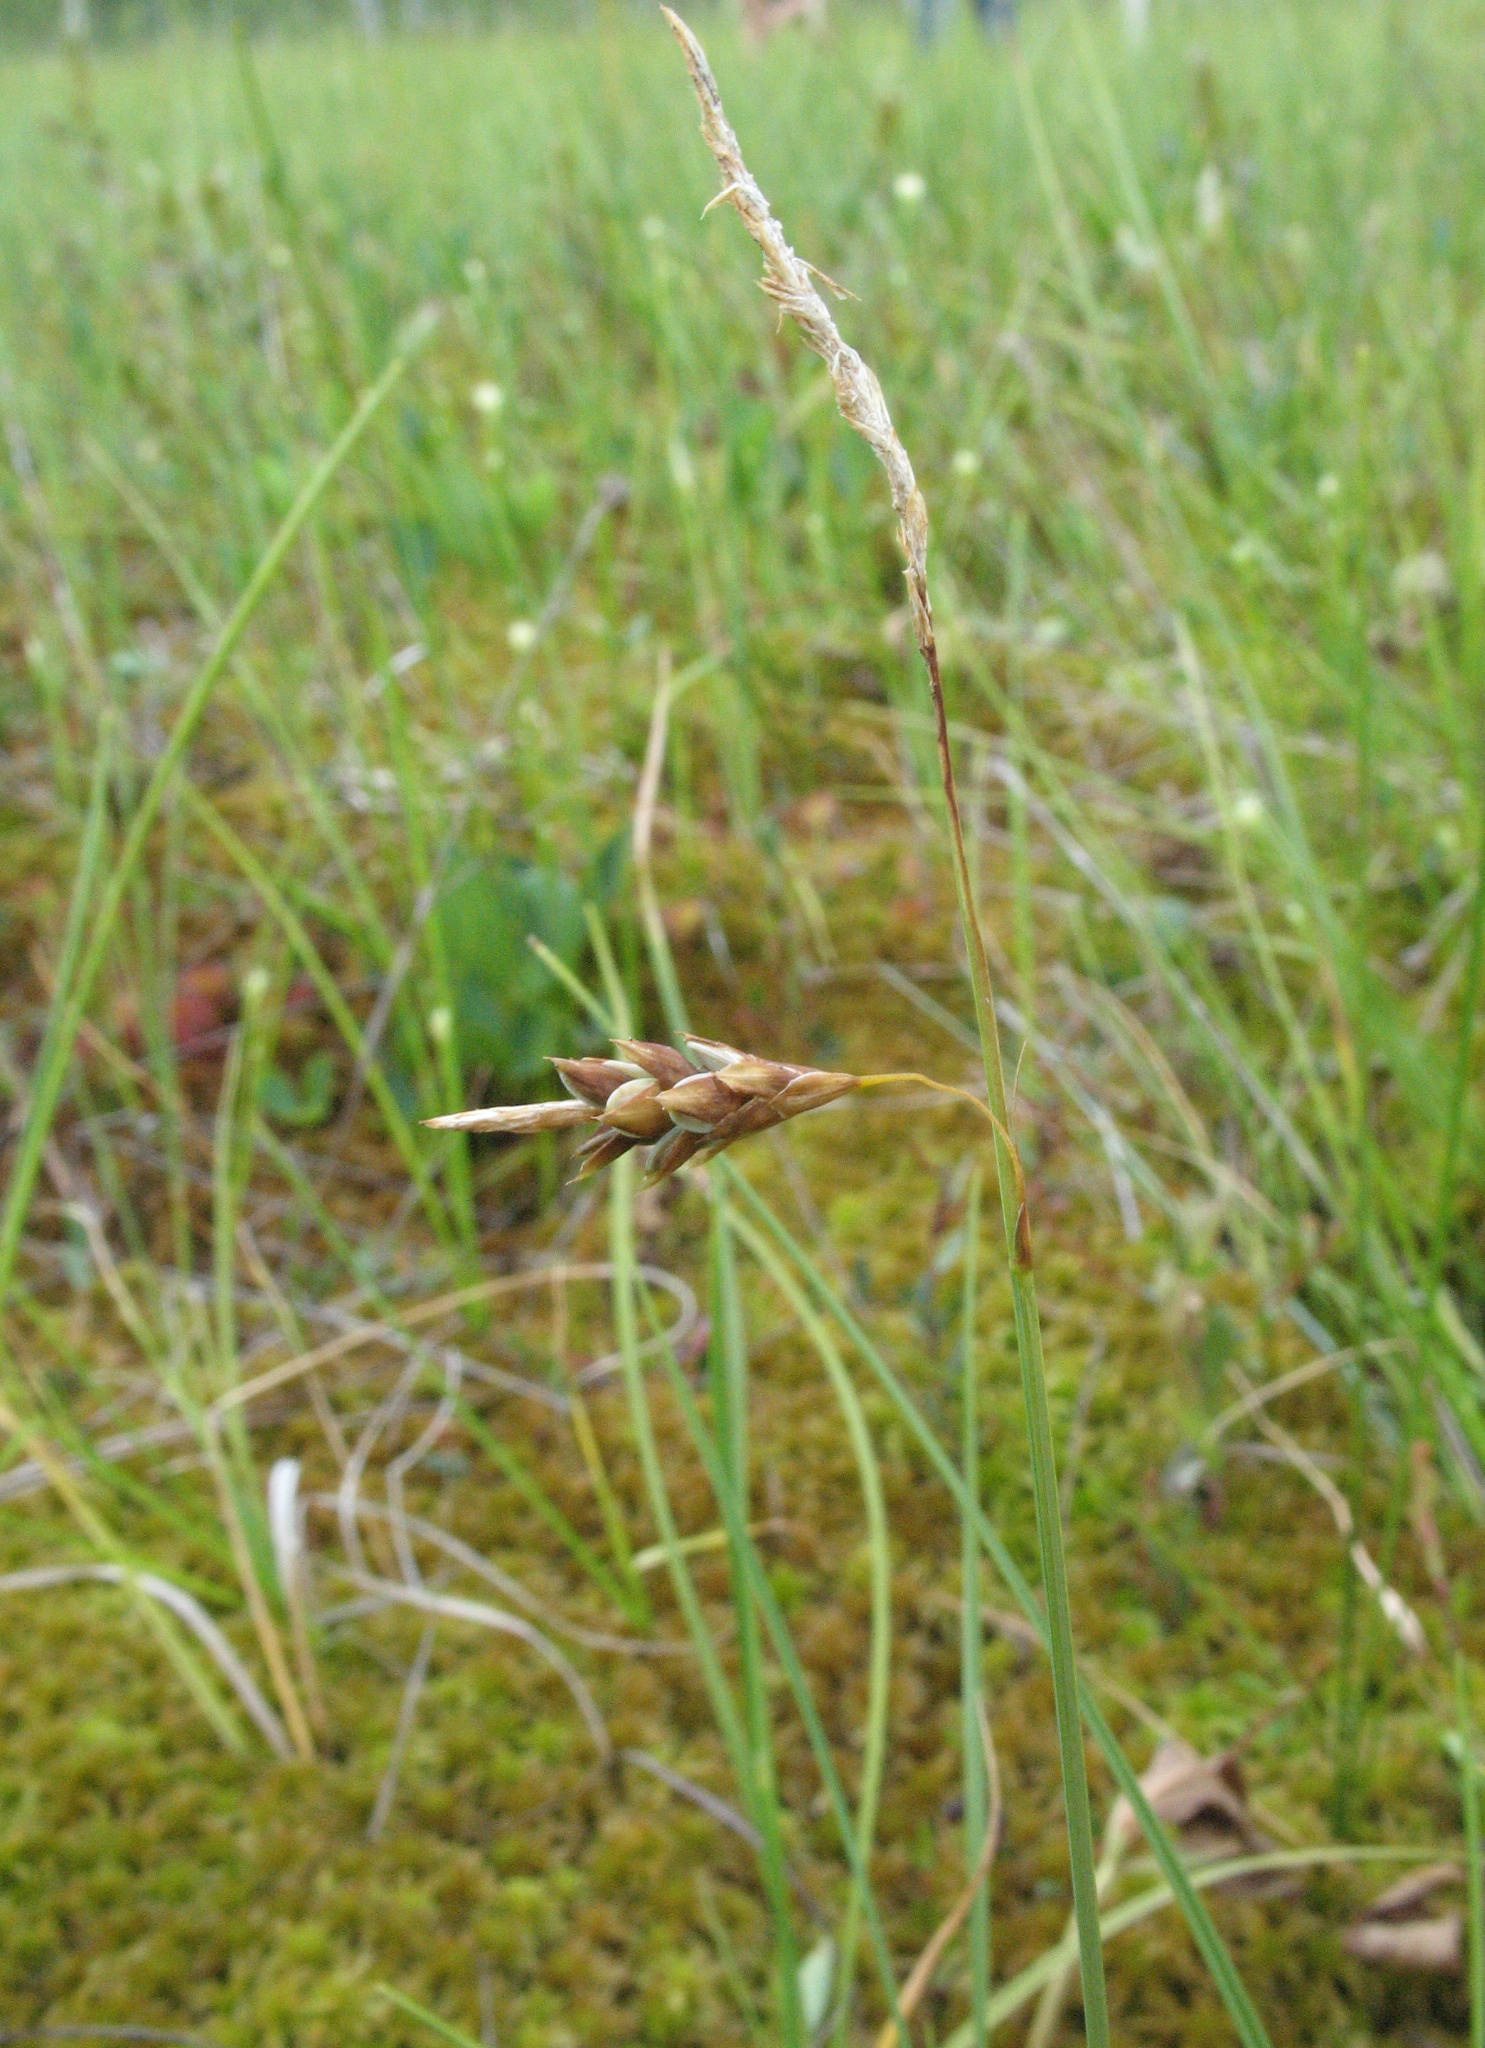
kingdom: Plantae
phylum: Tracheophyta
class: Liliopsida
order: Poales
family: Cyperaceae
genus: Carex
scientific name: Carex limosa
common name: Bog sedge
